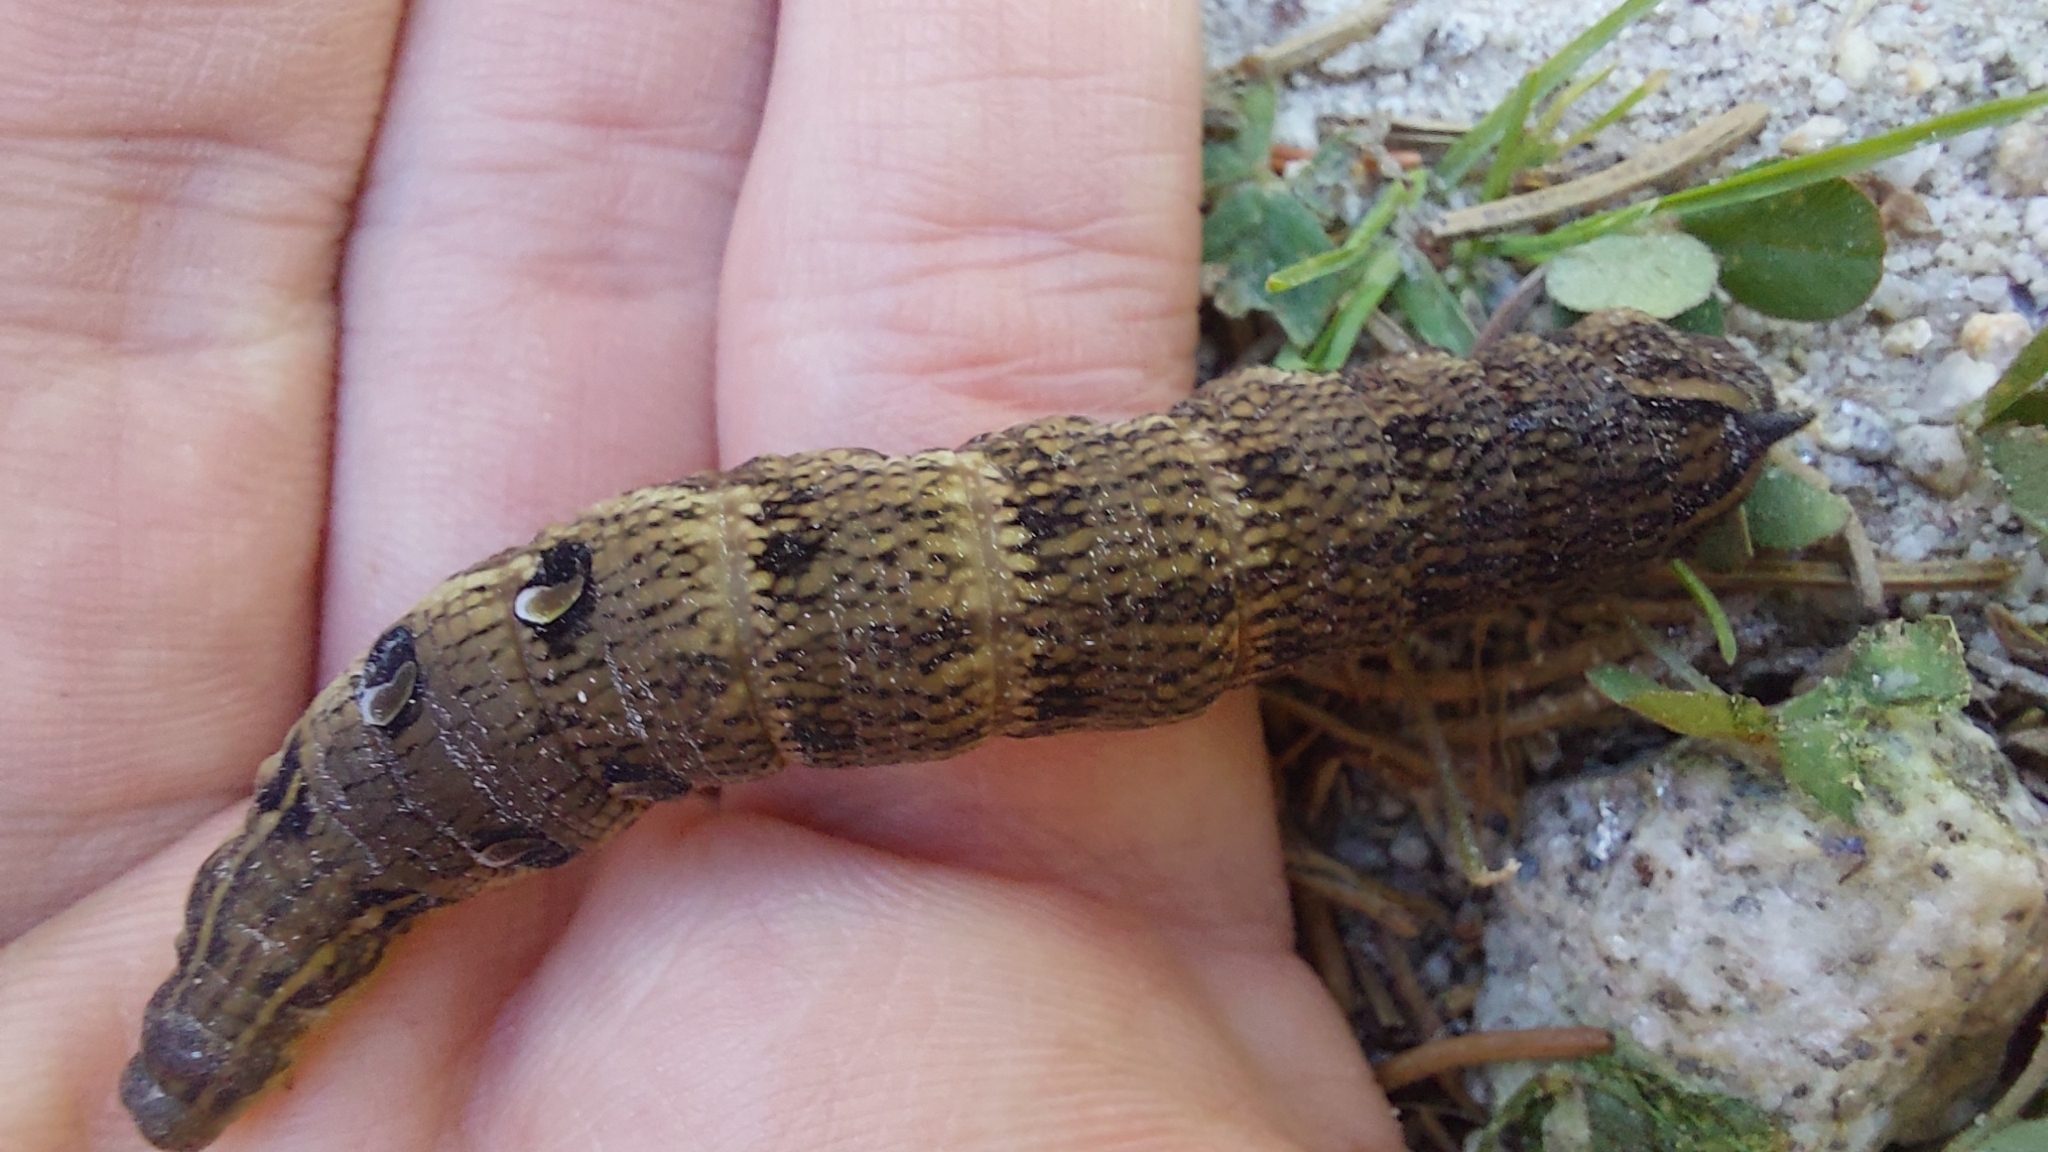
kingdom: Animalia
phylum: Arthropoda
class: Insecta
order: Lepidoptera
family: Sphingidae
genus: Deilephila
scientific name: Deilephila elpenor
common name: Elephant hawk-moth
